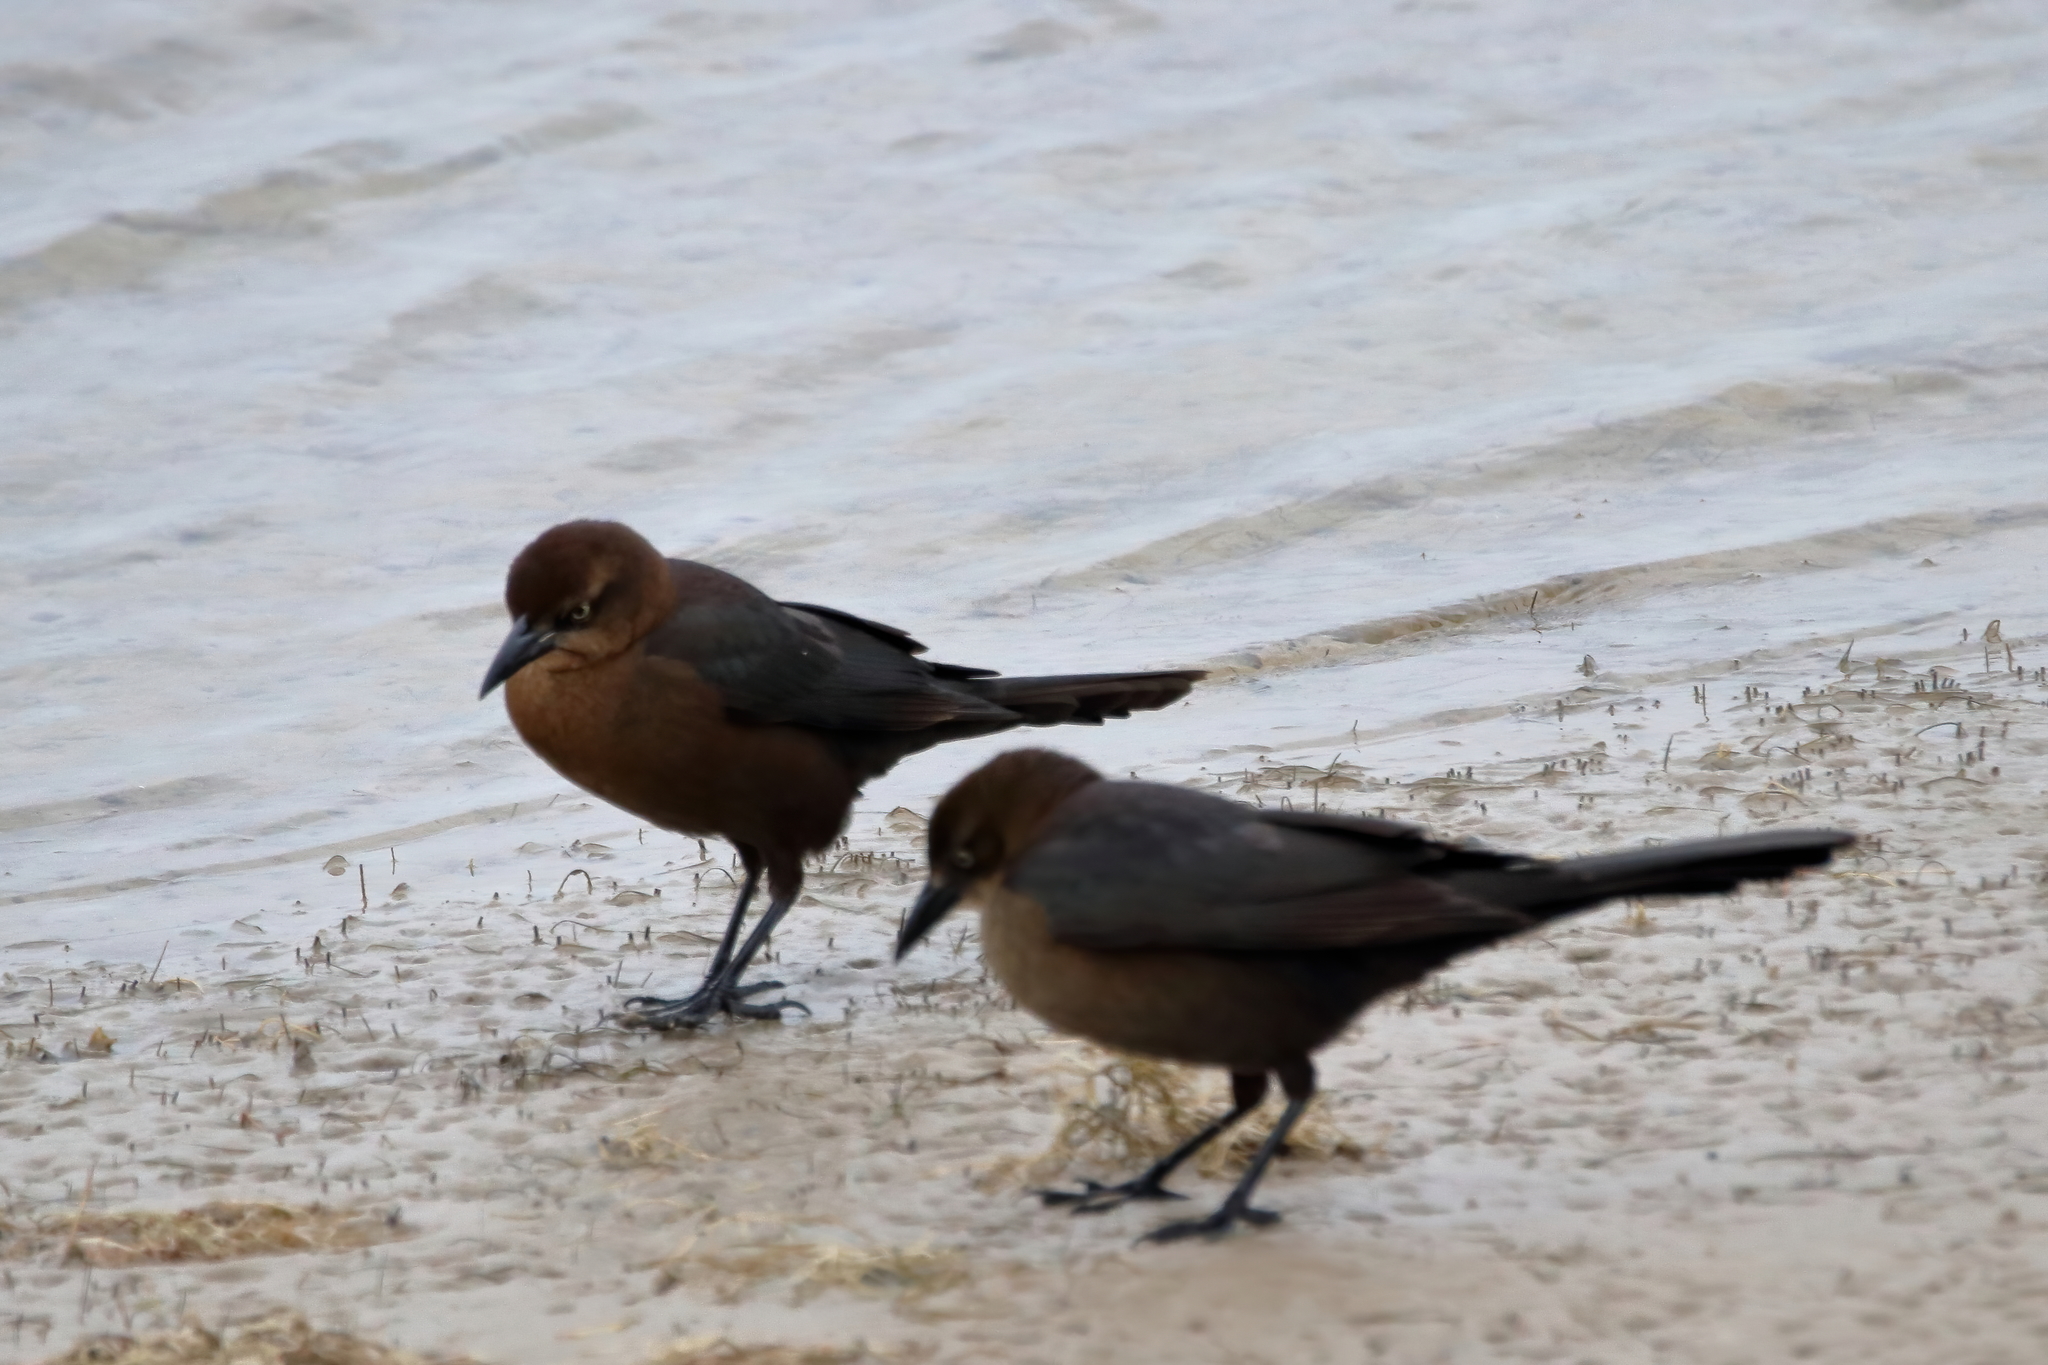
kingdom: Animalia
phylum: Chordata
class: Aves
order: Passeriformes
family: Icteridae
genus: Quiscalus
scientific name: Quiscalus mexicanus
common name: Great-tailed grackle
